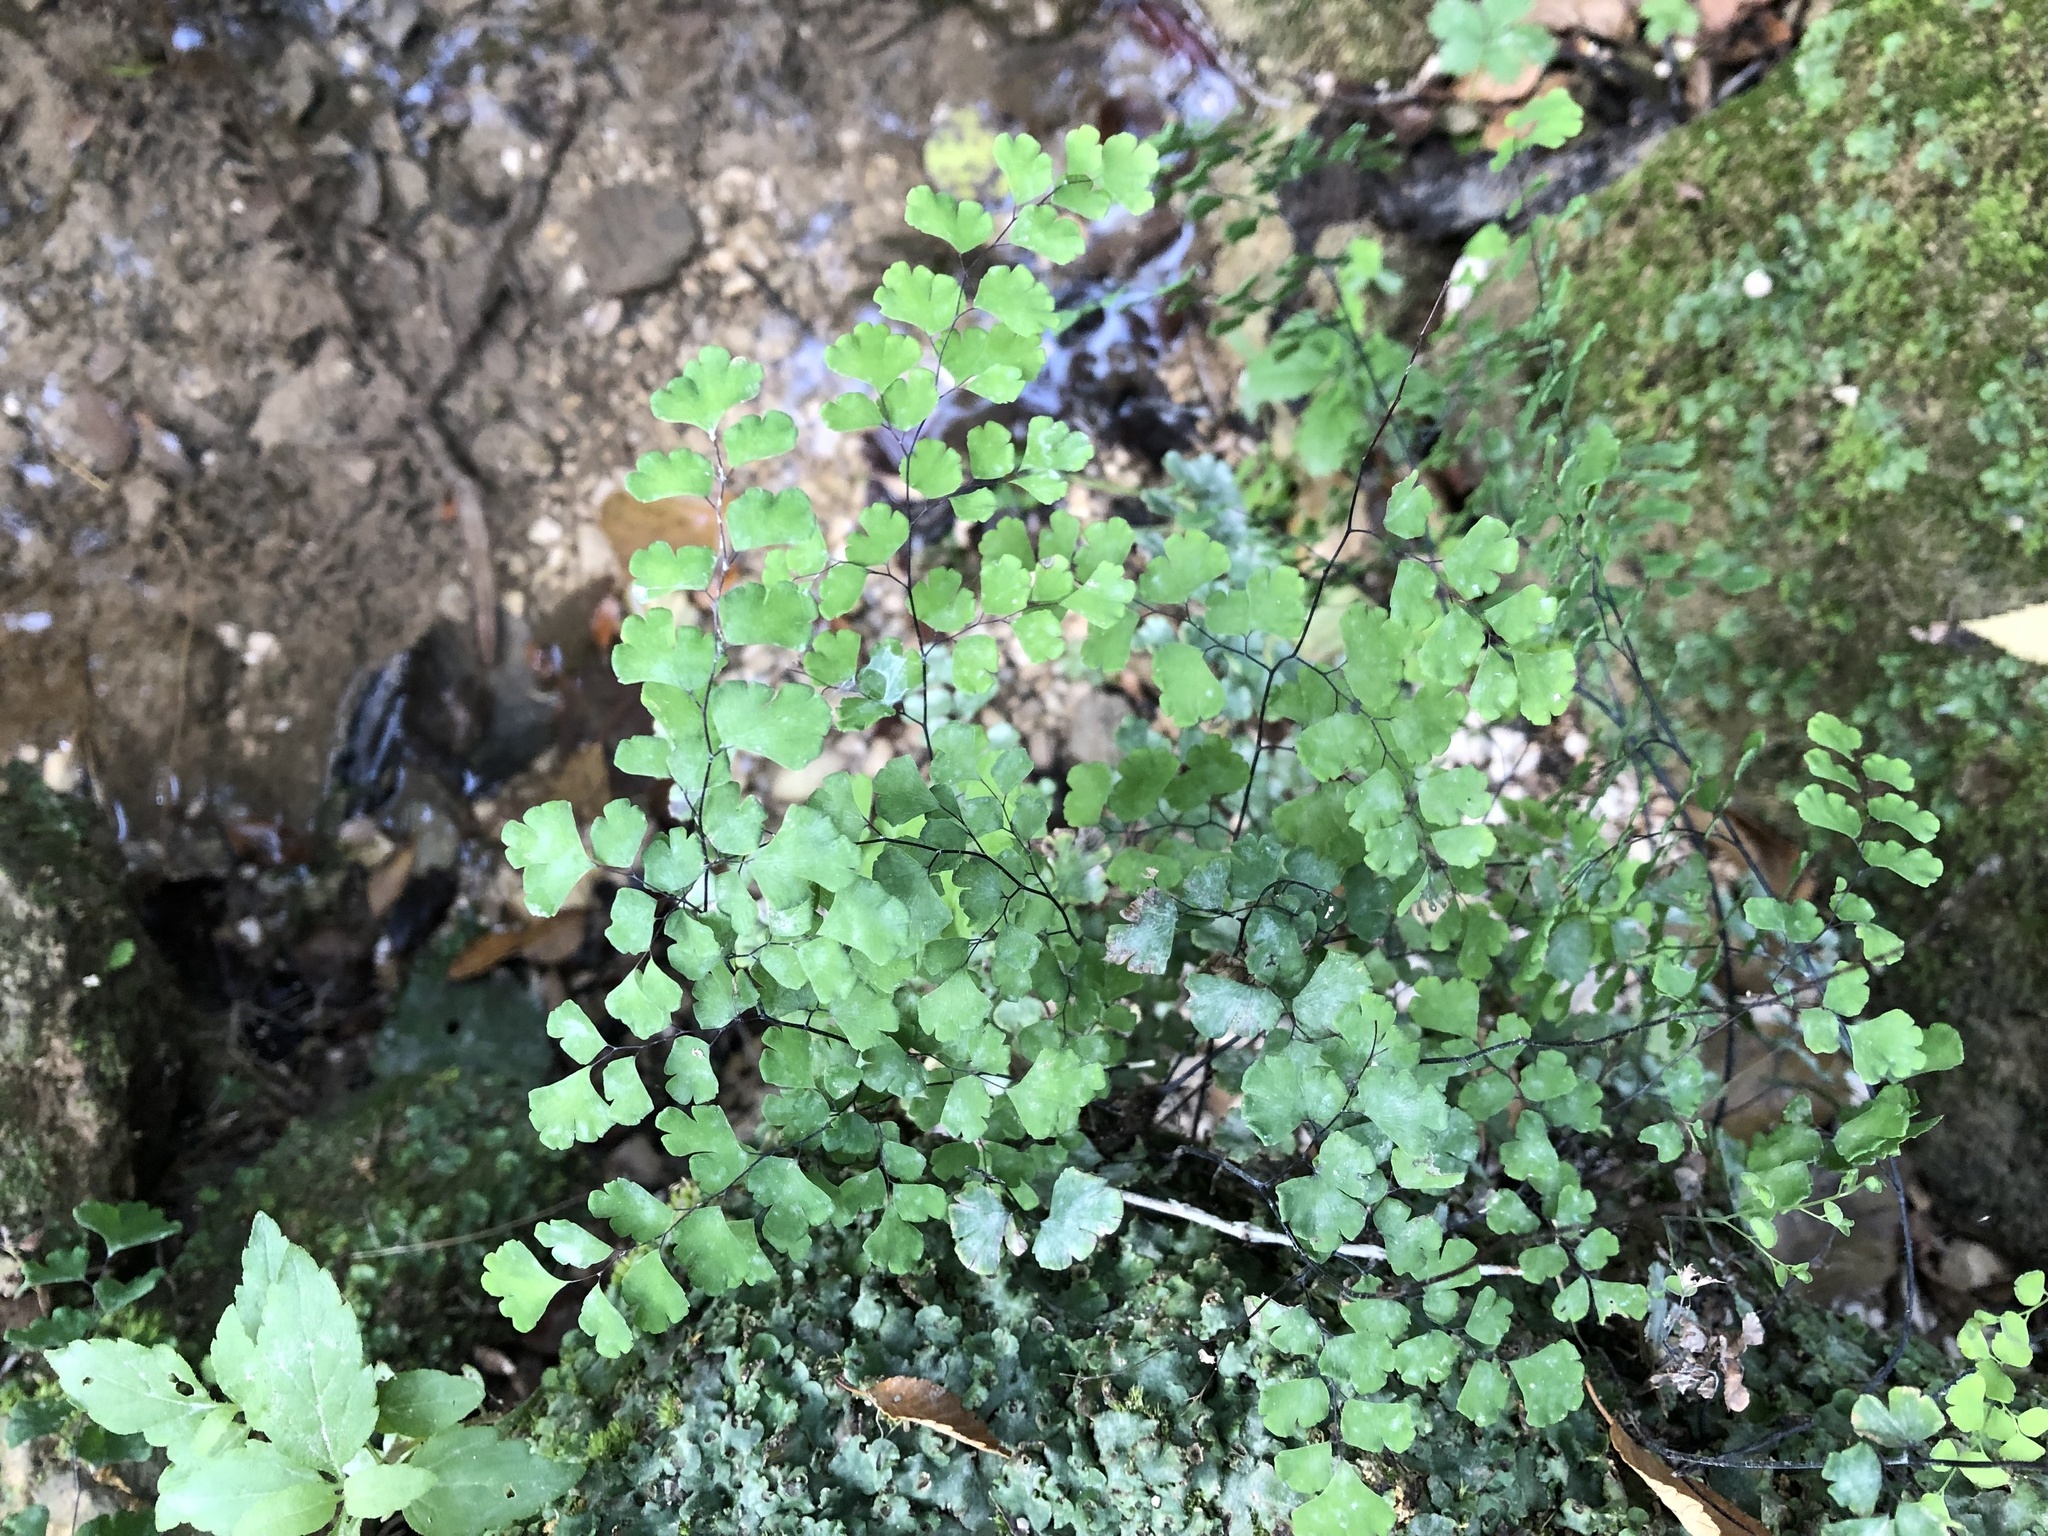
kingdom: Plantae
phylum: Tracheophyta
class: Polypodiopsida
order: Polypodiales
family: Pteridaceae
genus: Adiantum
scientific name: Adiantum capillus-veneris
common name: Maidenhair fern
